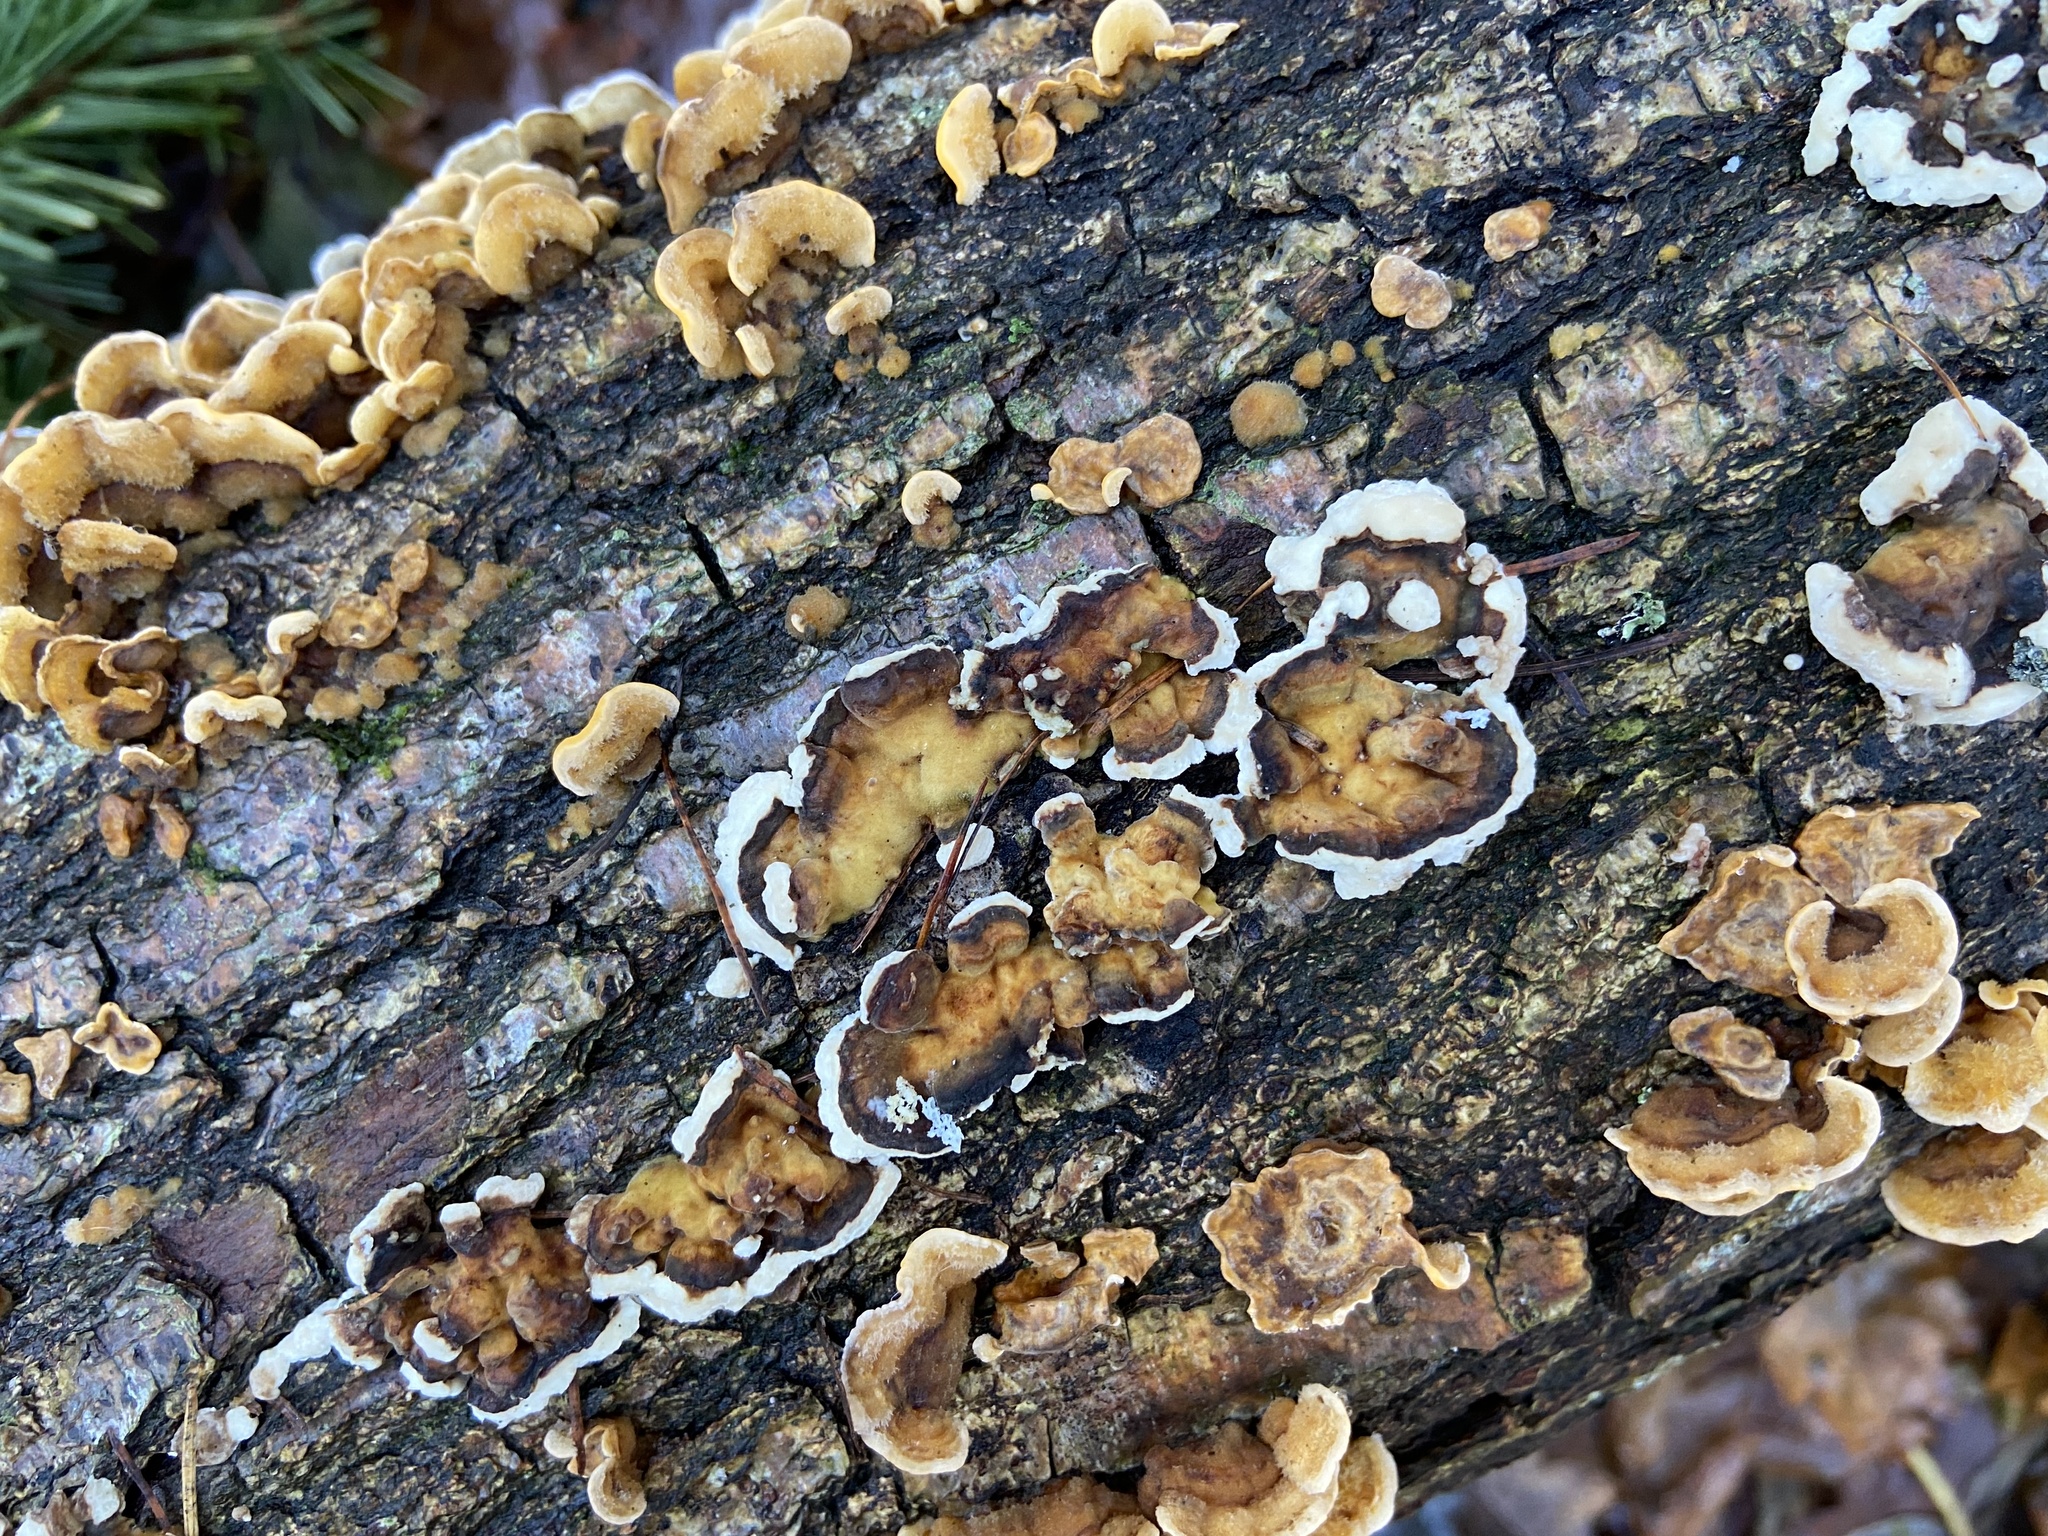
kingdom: Fungi
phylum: Basidiomycota
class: Agaricomycetes
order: Russulales
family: Stereaceae
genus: Stereum
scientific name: Stereum hirsutum
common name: Hairy curtain crust
